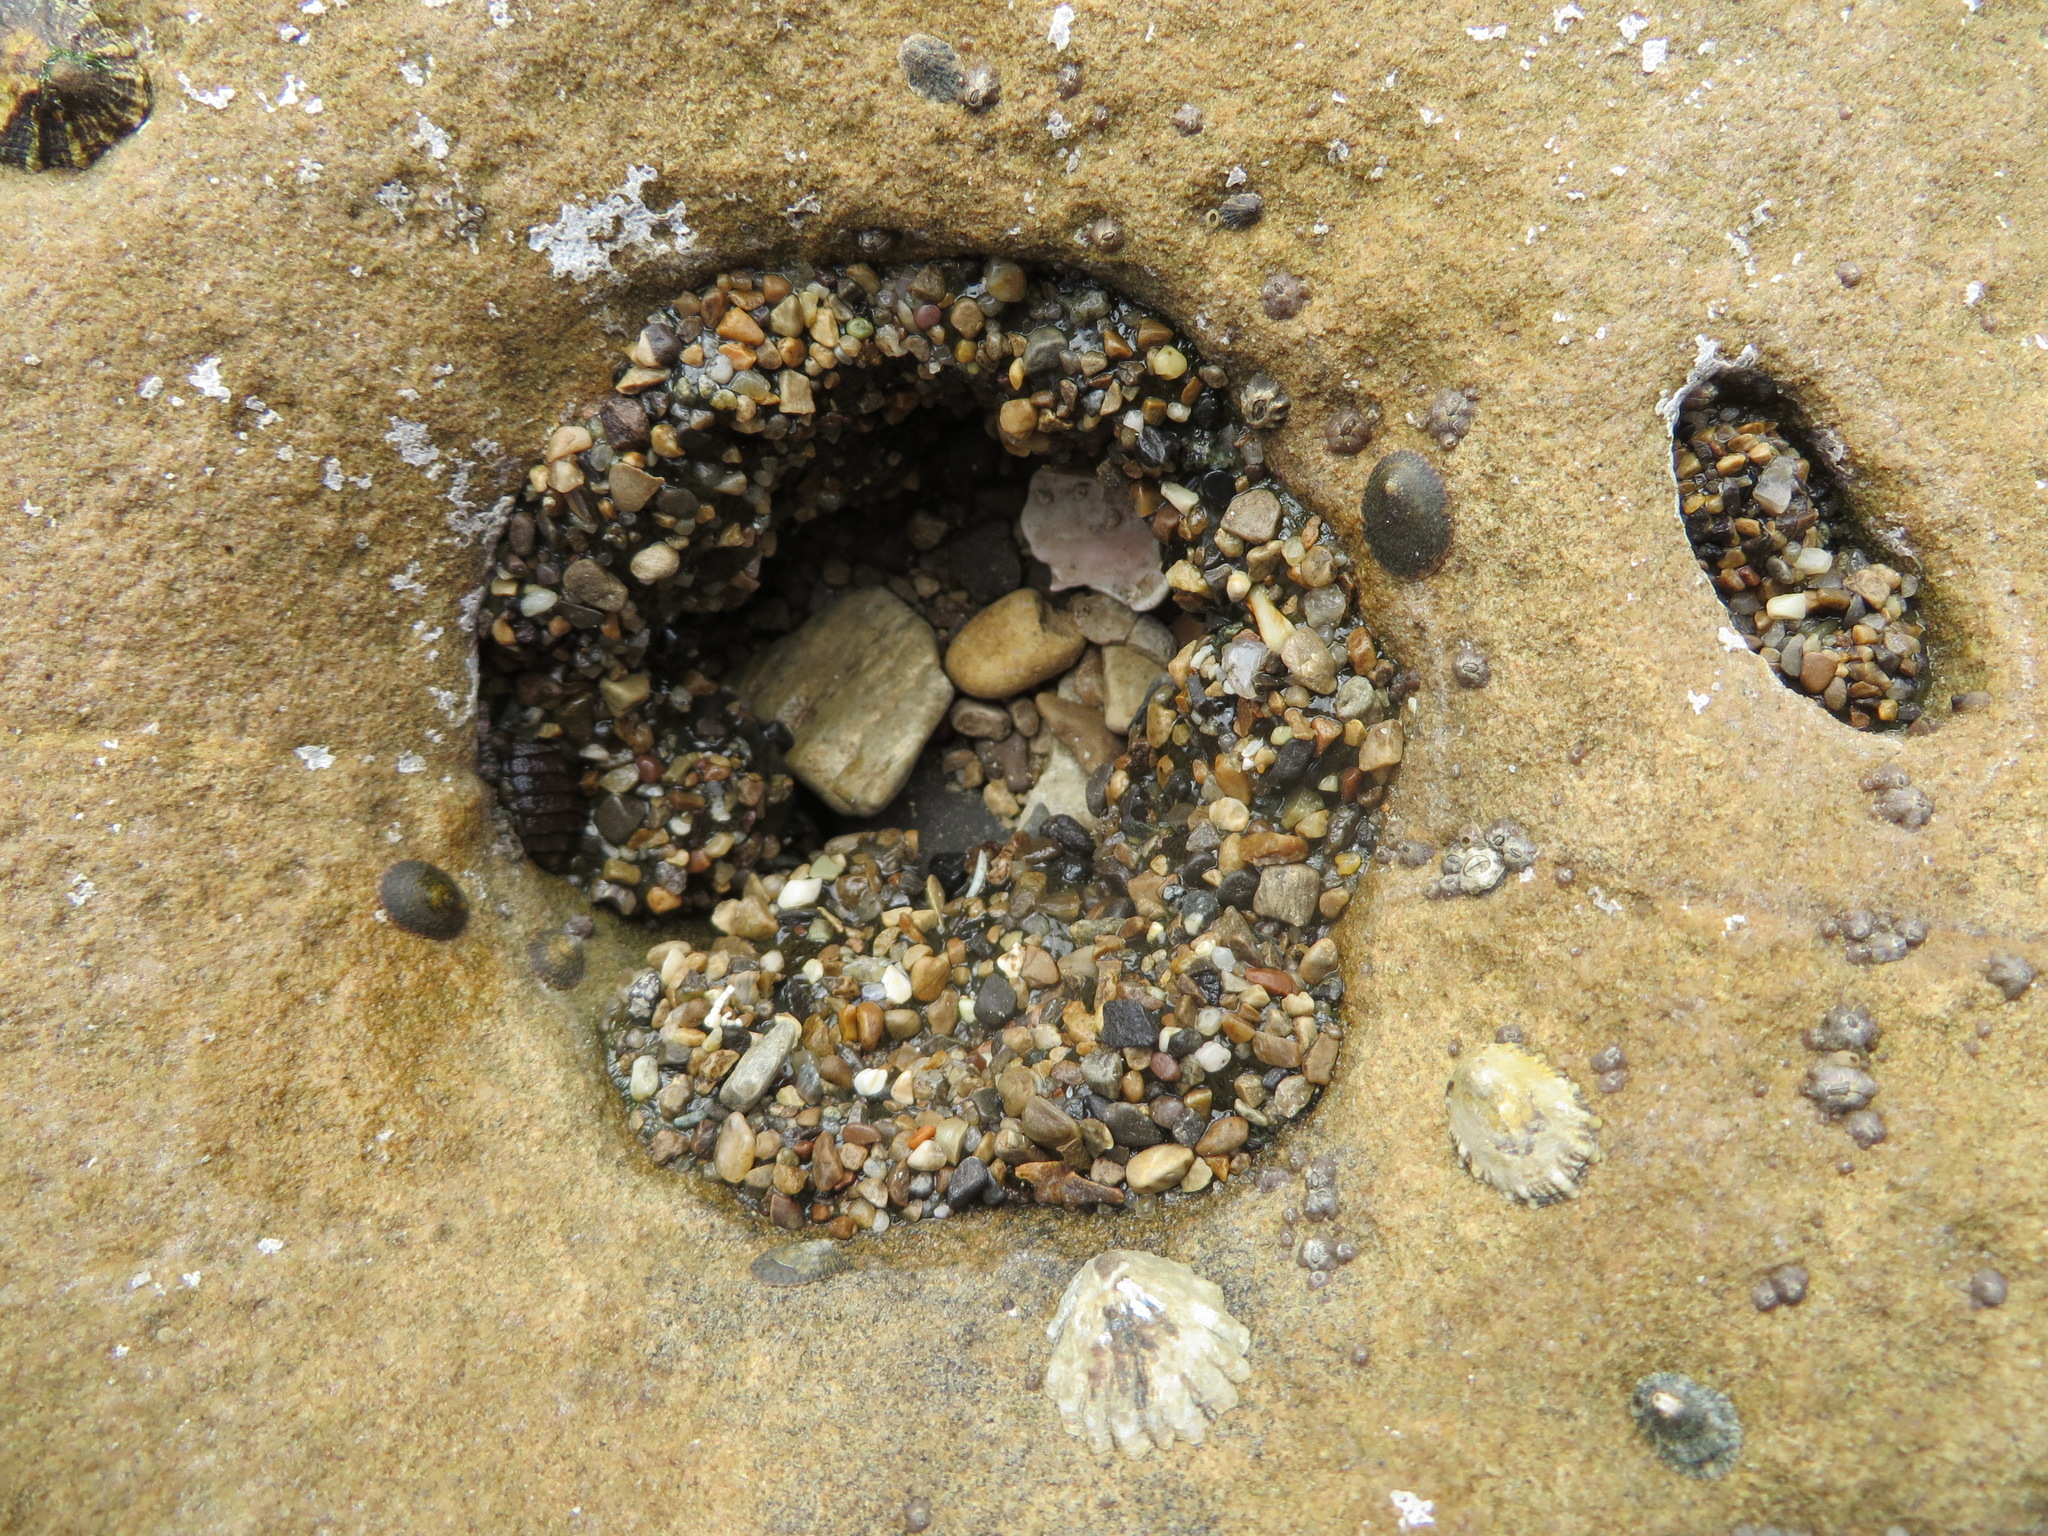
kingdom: Animalia
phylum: Cnidaria
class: Anthozoa
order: Actiniaria
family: Actiniidae
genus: Anthopleura
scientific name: Anthopleura elegantissima
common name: Clonal anemone
